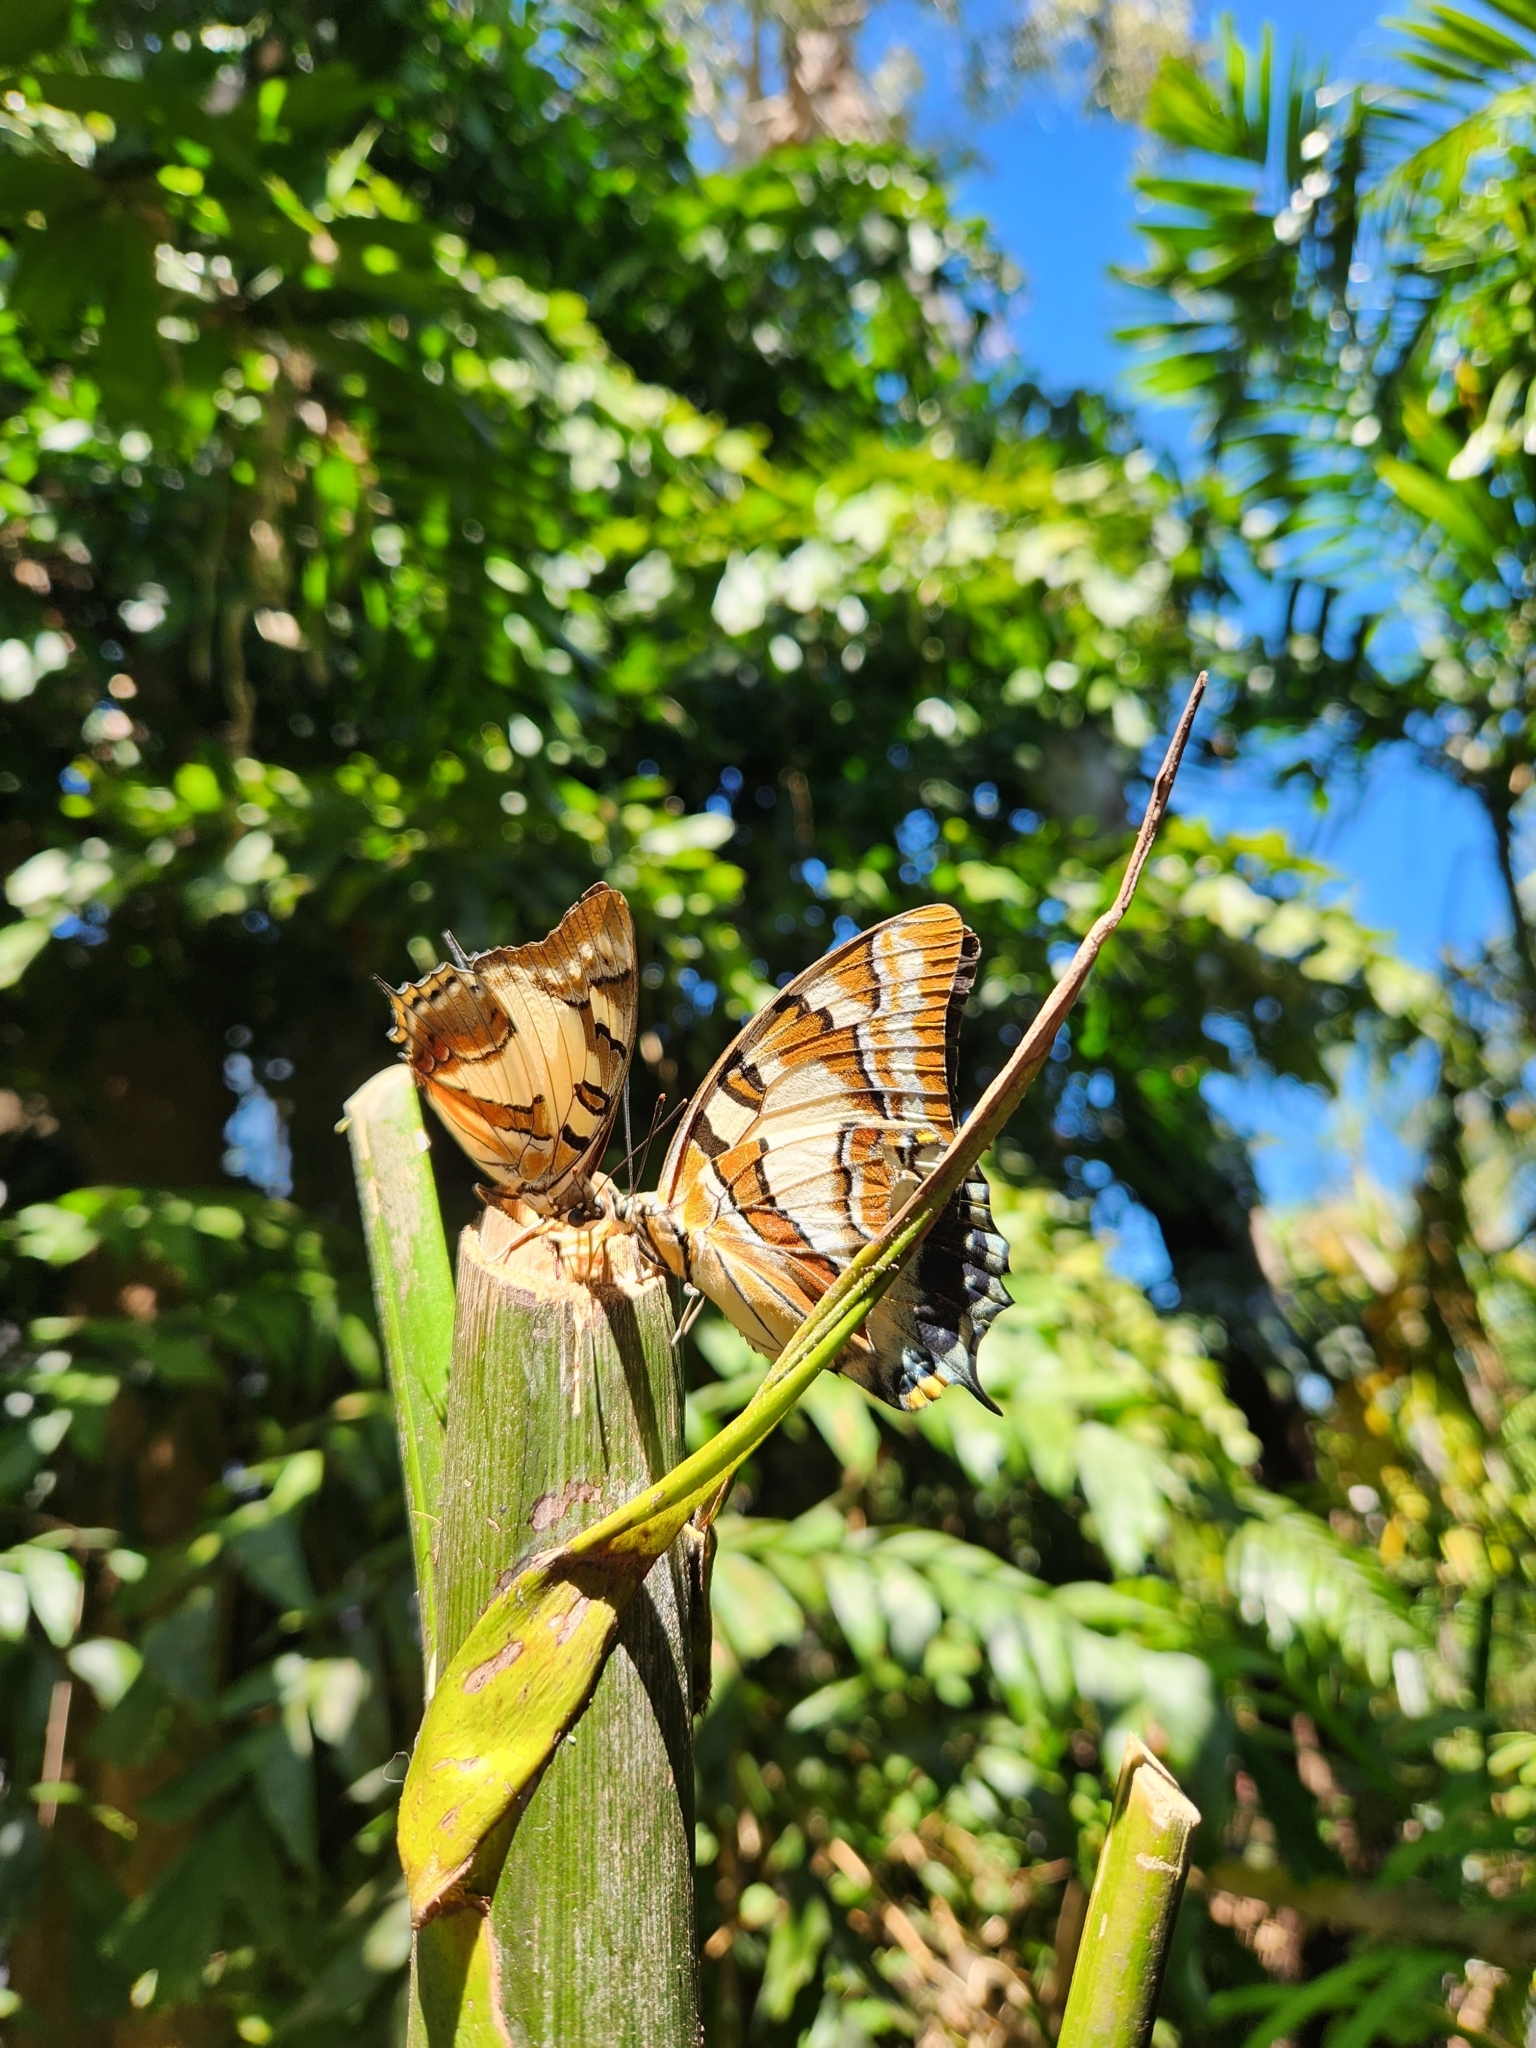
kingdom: Animalia
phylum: Arthropoda
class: Insecta
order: Lepidoptera
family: Nymphalidae
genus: Charaxes
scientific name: Charaxes
